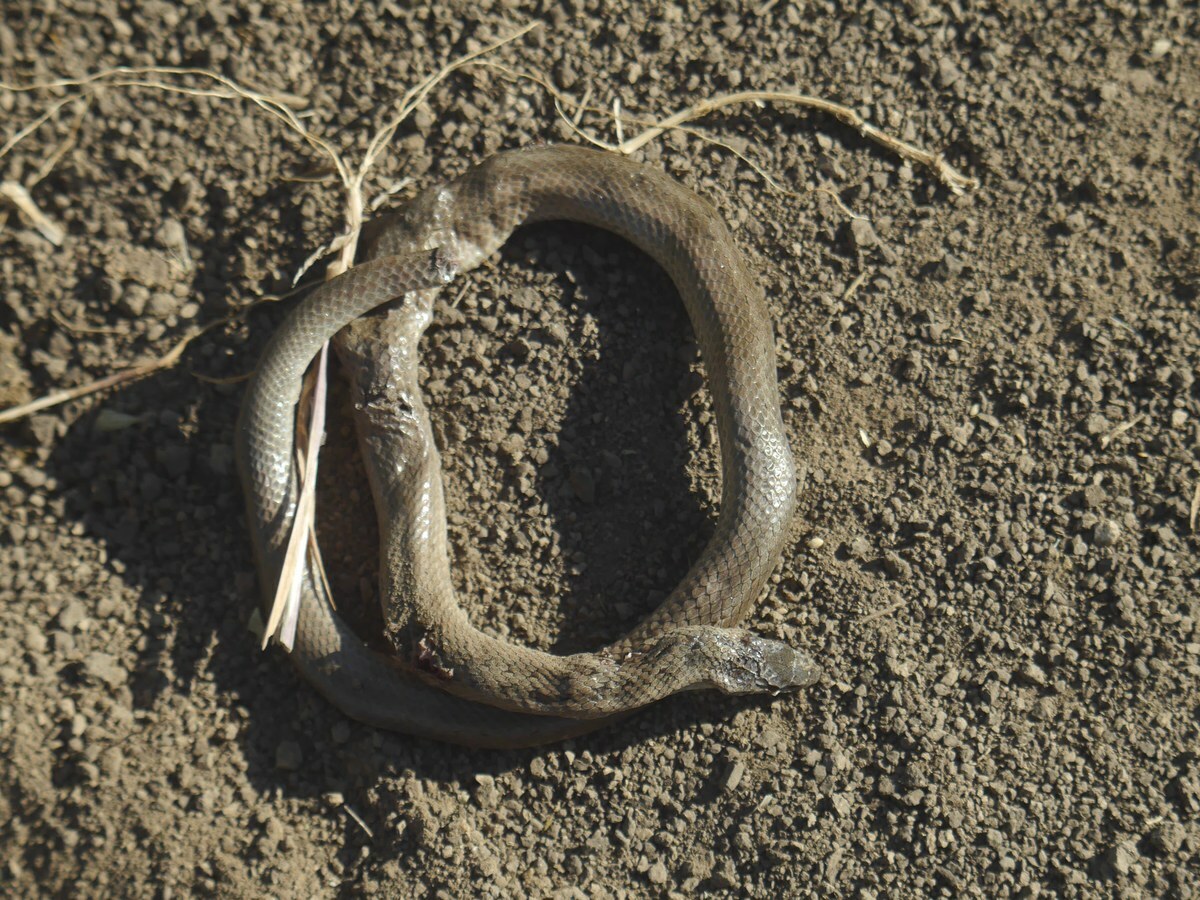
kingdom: Animalia
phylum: Chordata
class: Squamata
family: Colubridae
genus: Coronella
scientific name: Coronella austriaca
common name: Smooth snake
